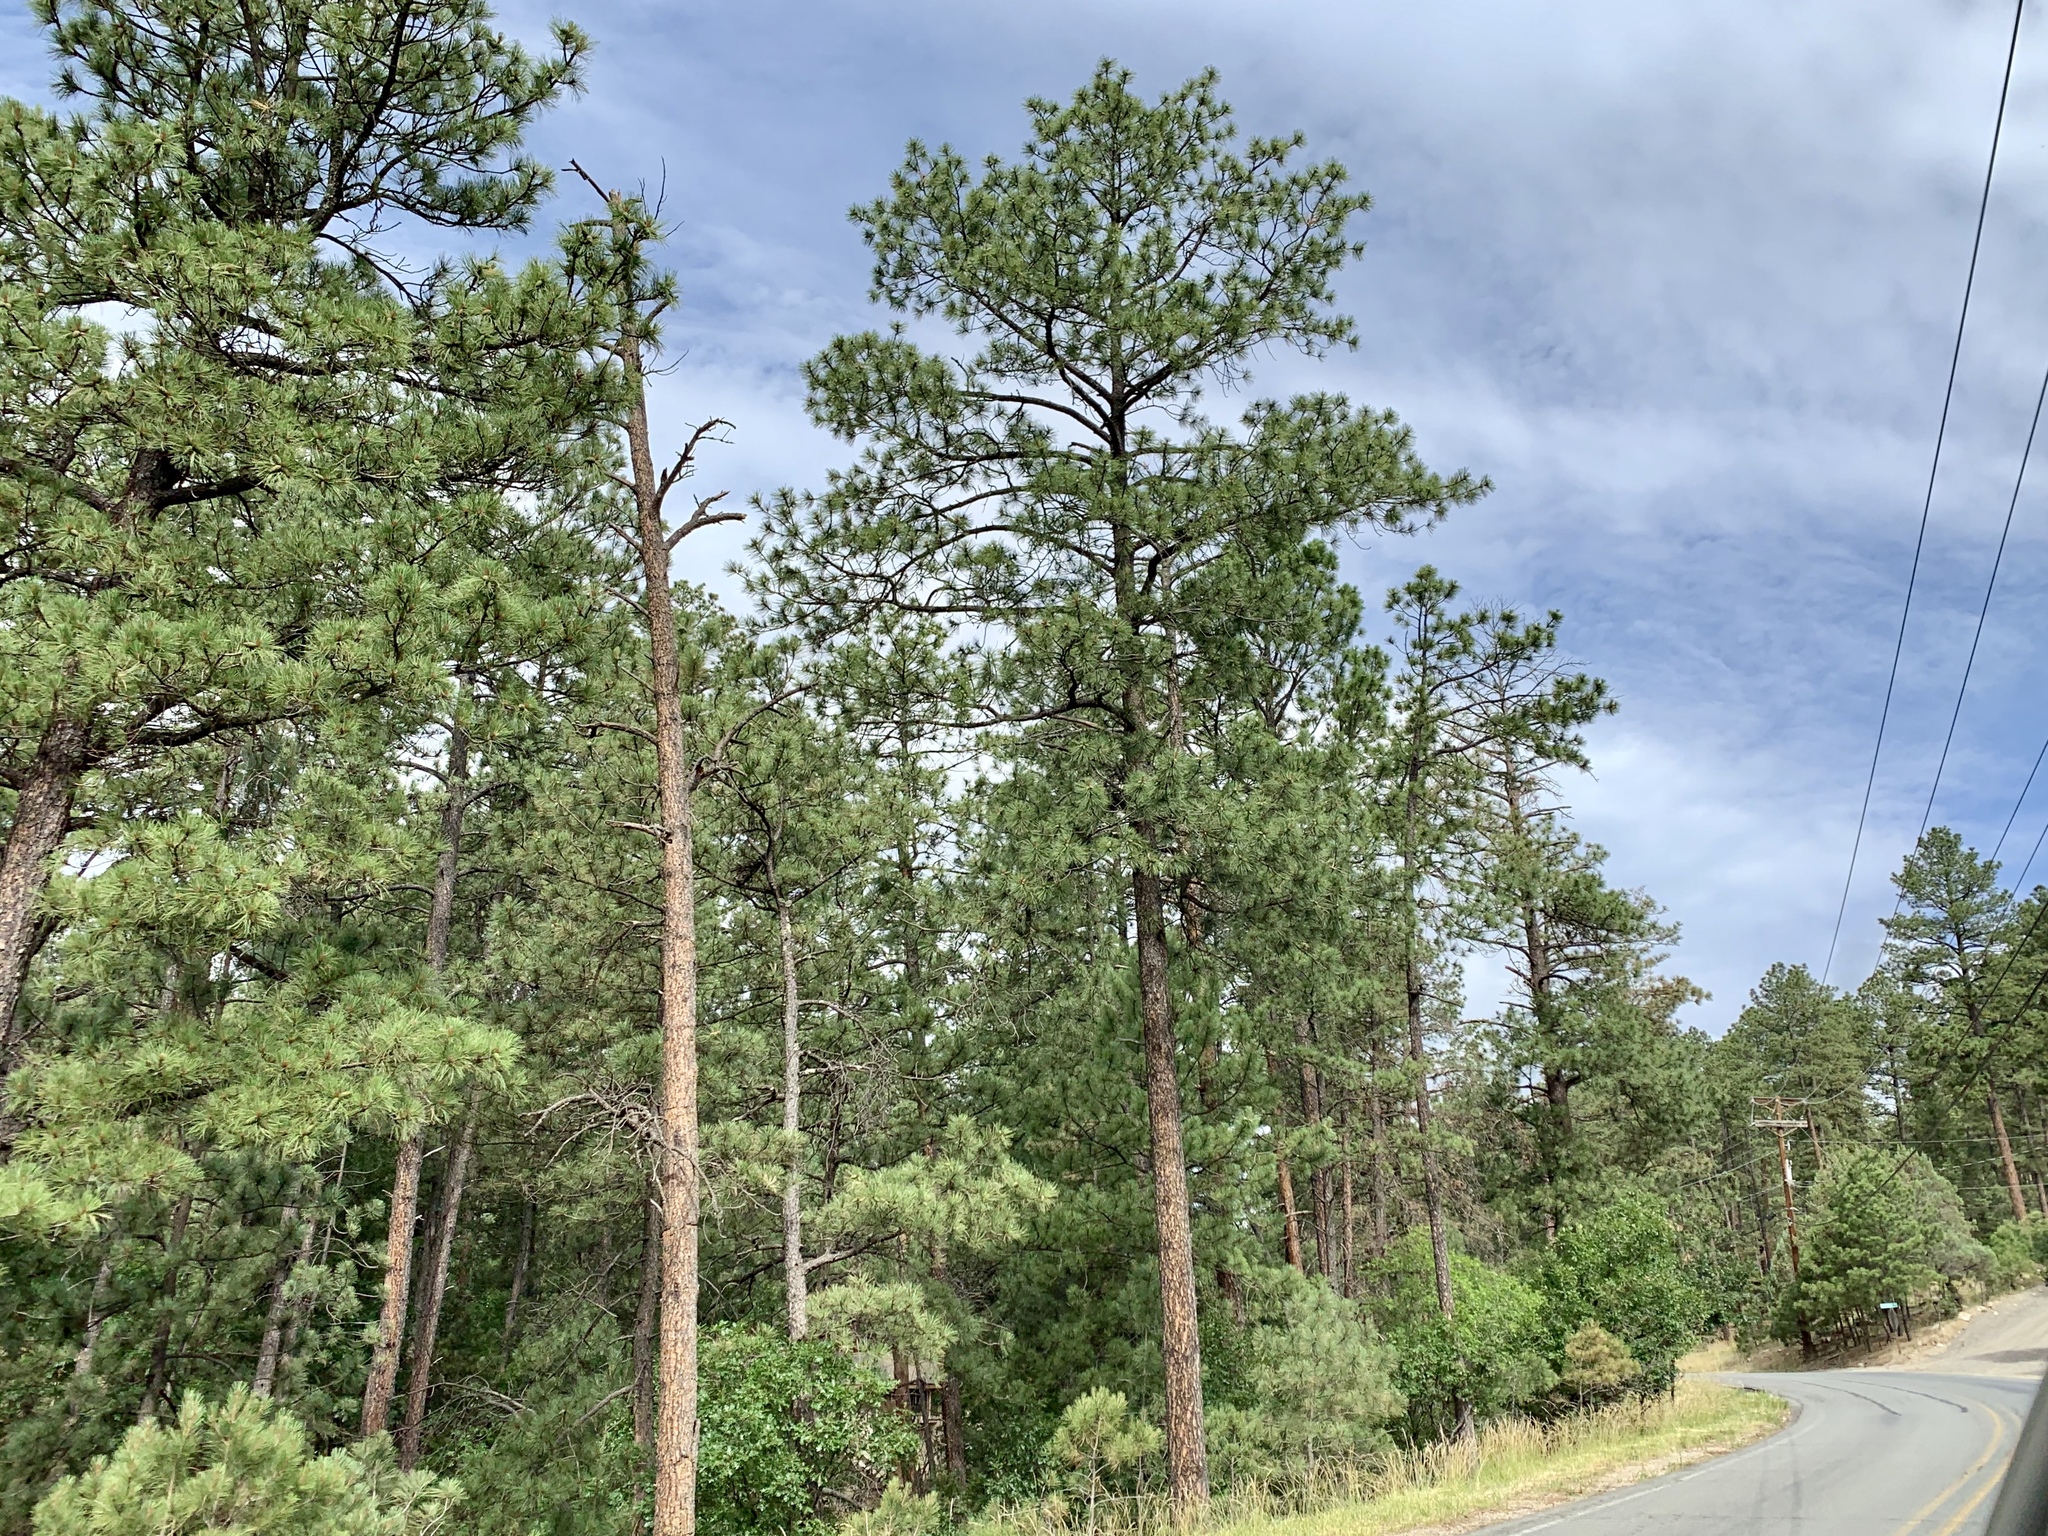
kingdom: Plantae
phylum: Tracheophyta
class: Pinopsida
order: Pinales
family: Pinaceae
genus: Pinus
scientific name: Pinus ponderosa
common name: Western yellow-pine
